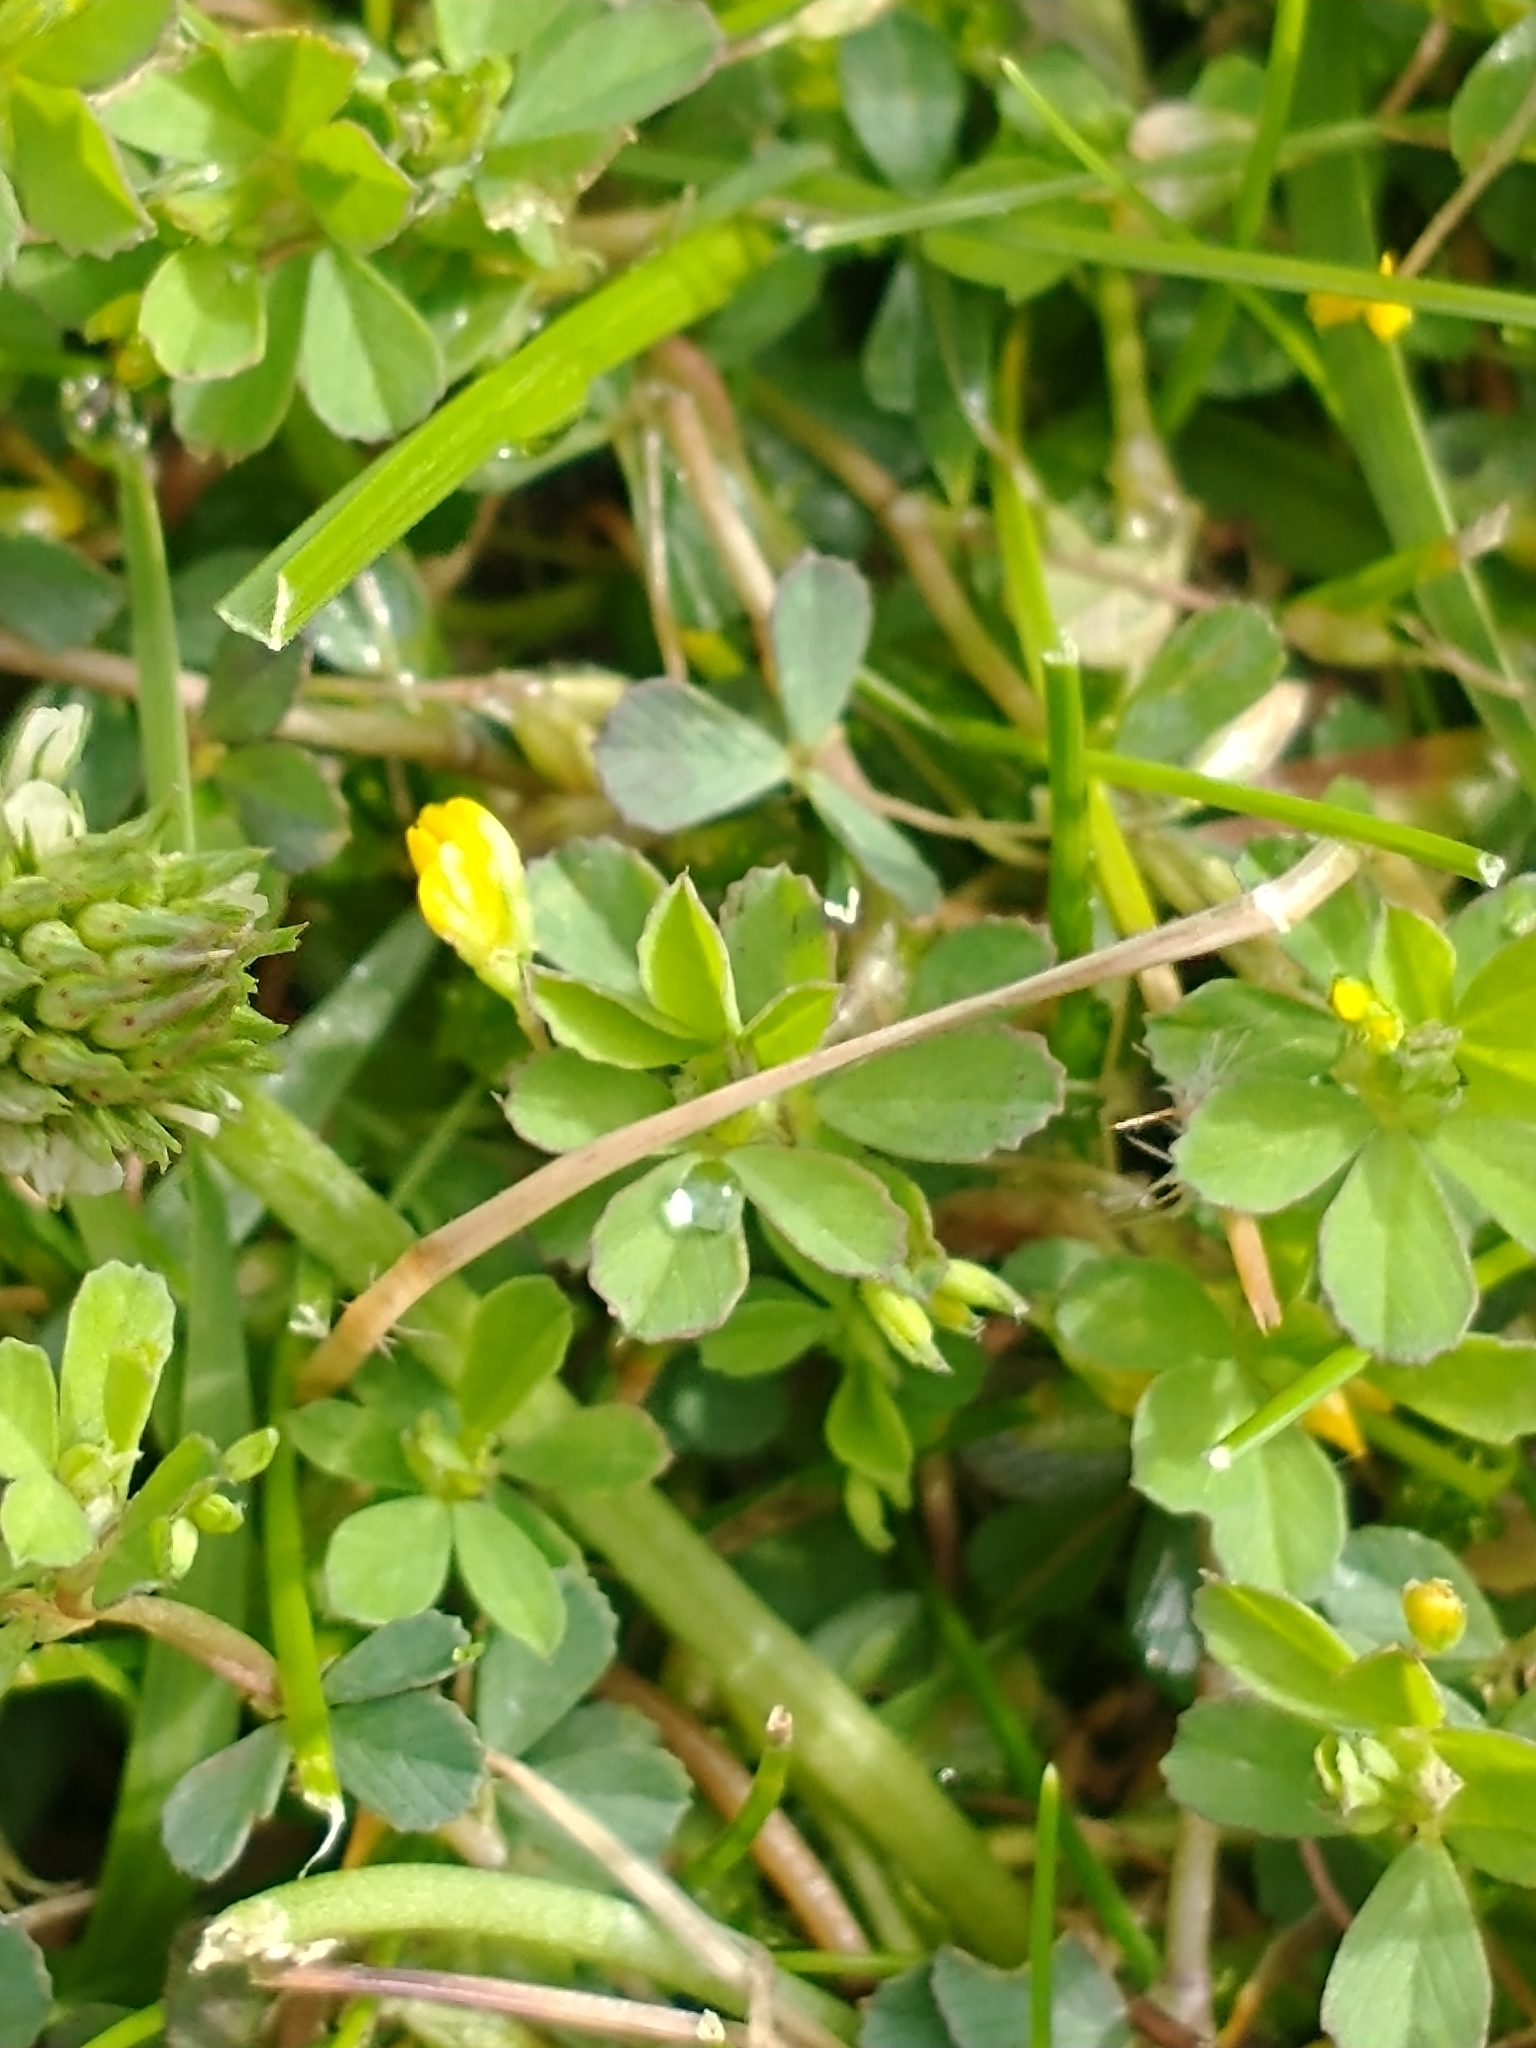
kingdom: Plantae
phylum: Tracheophyta
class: Magnoliopsida
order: Fabales
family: Fabaceae
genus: Trifolium
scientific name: Trifolium micranthum
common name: Slender trefoil
